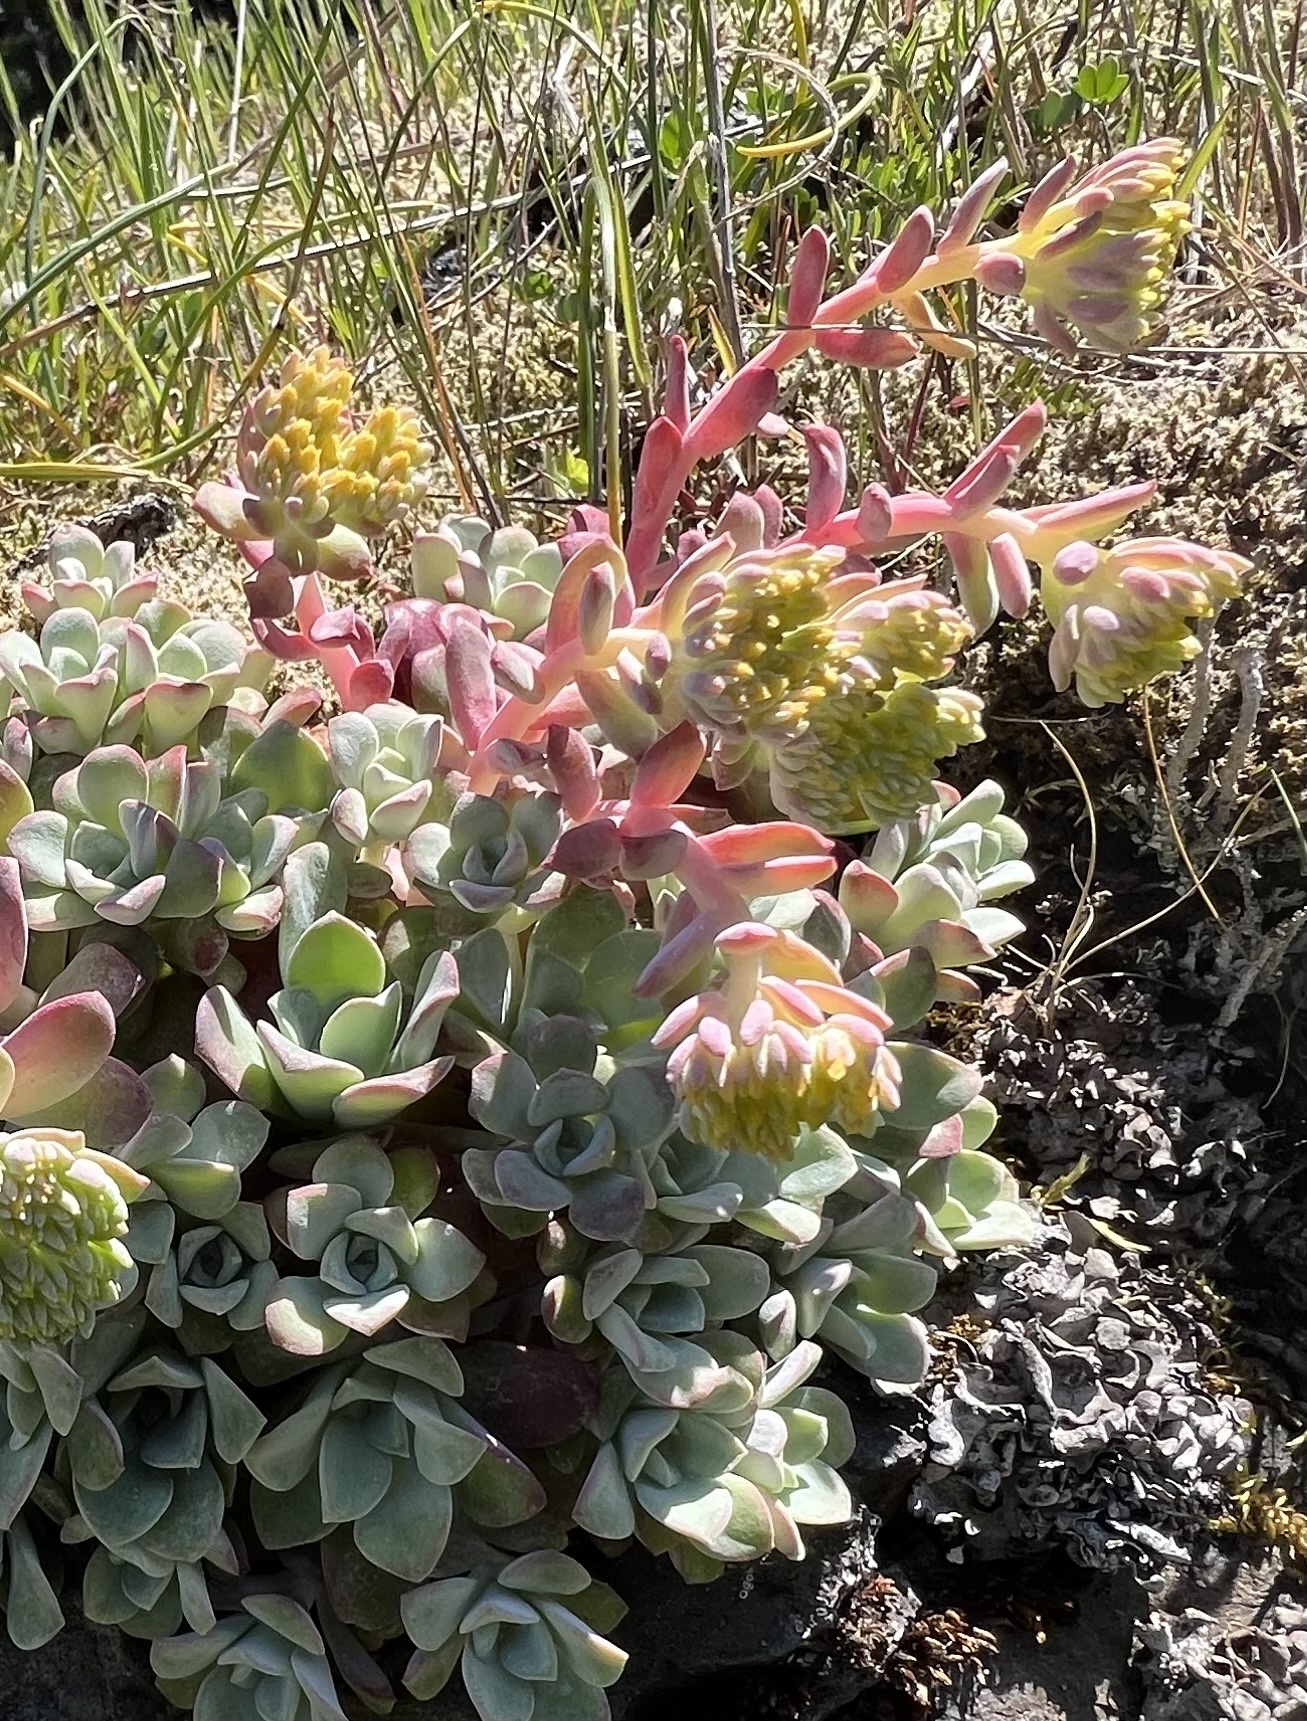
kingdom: Plantae
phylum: Tracheophyta
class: Magnoliopsida
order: Saxifragales
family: Crassulaceae
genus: Sedum
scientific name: Sedum spathulifolium
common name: Colorado stonecrop
